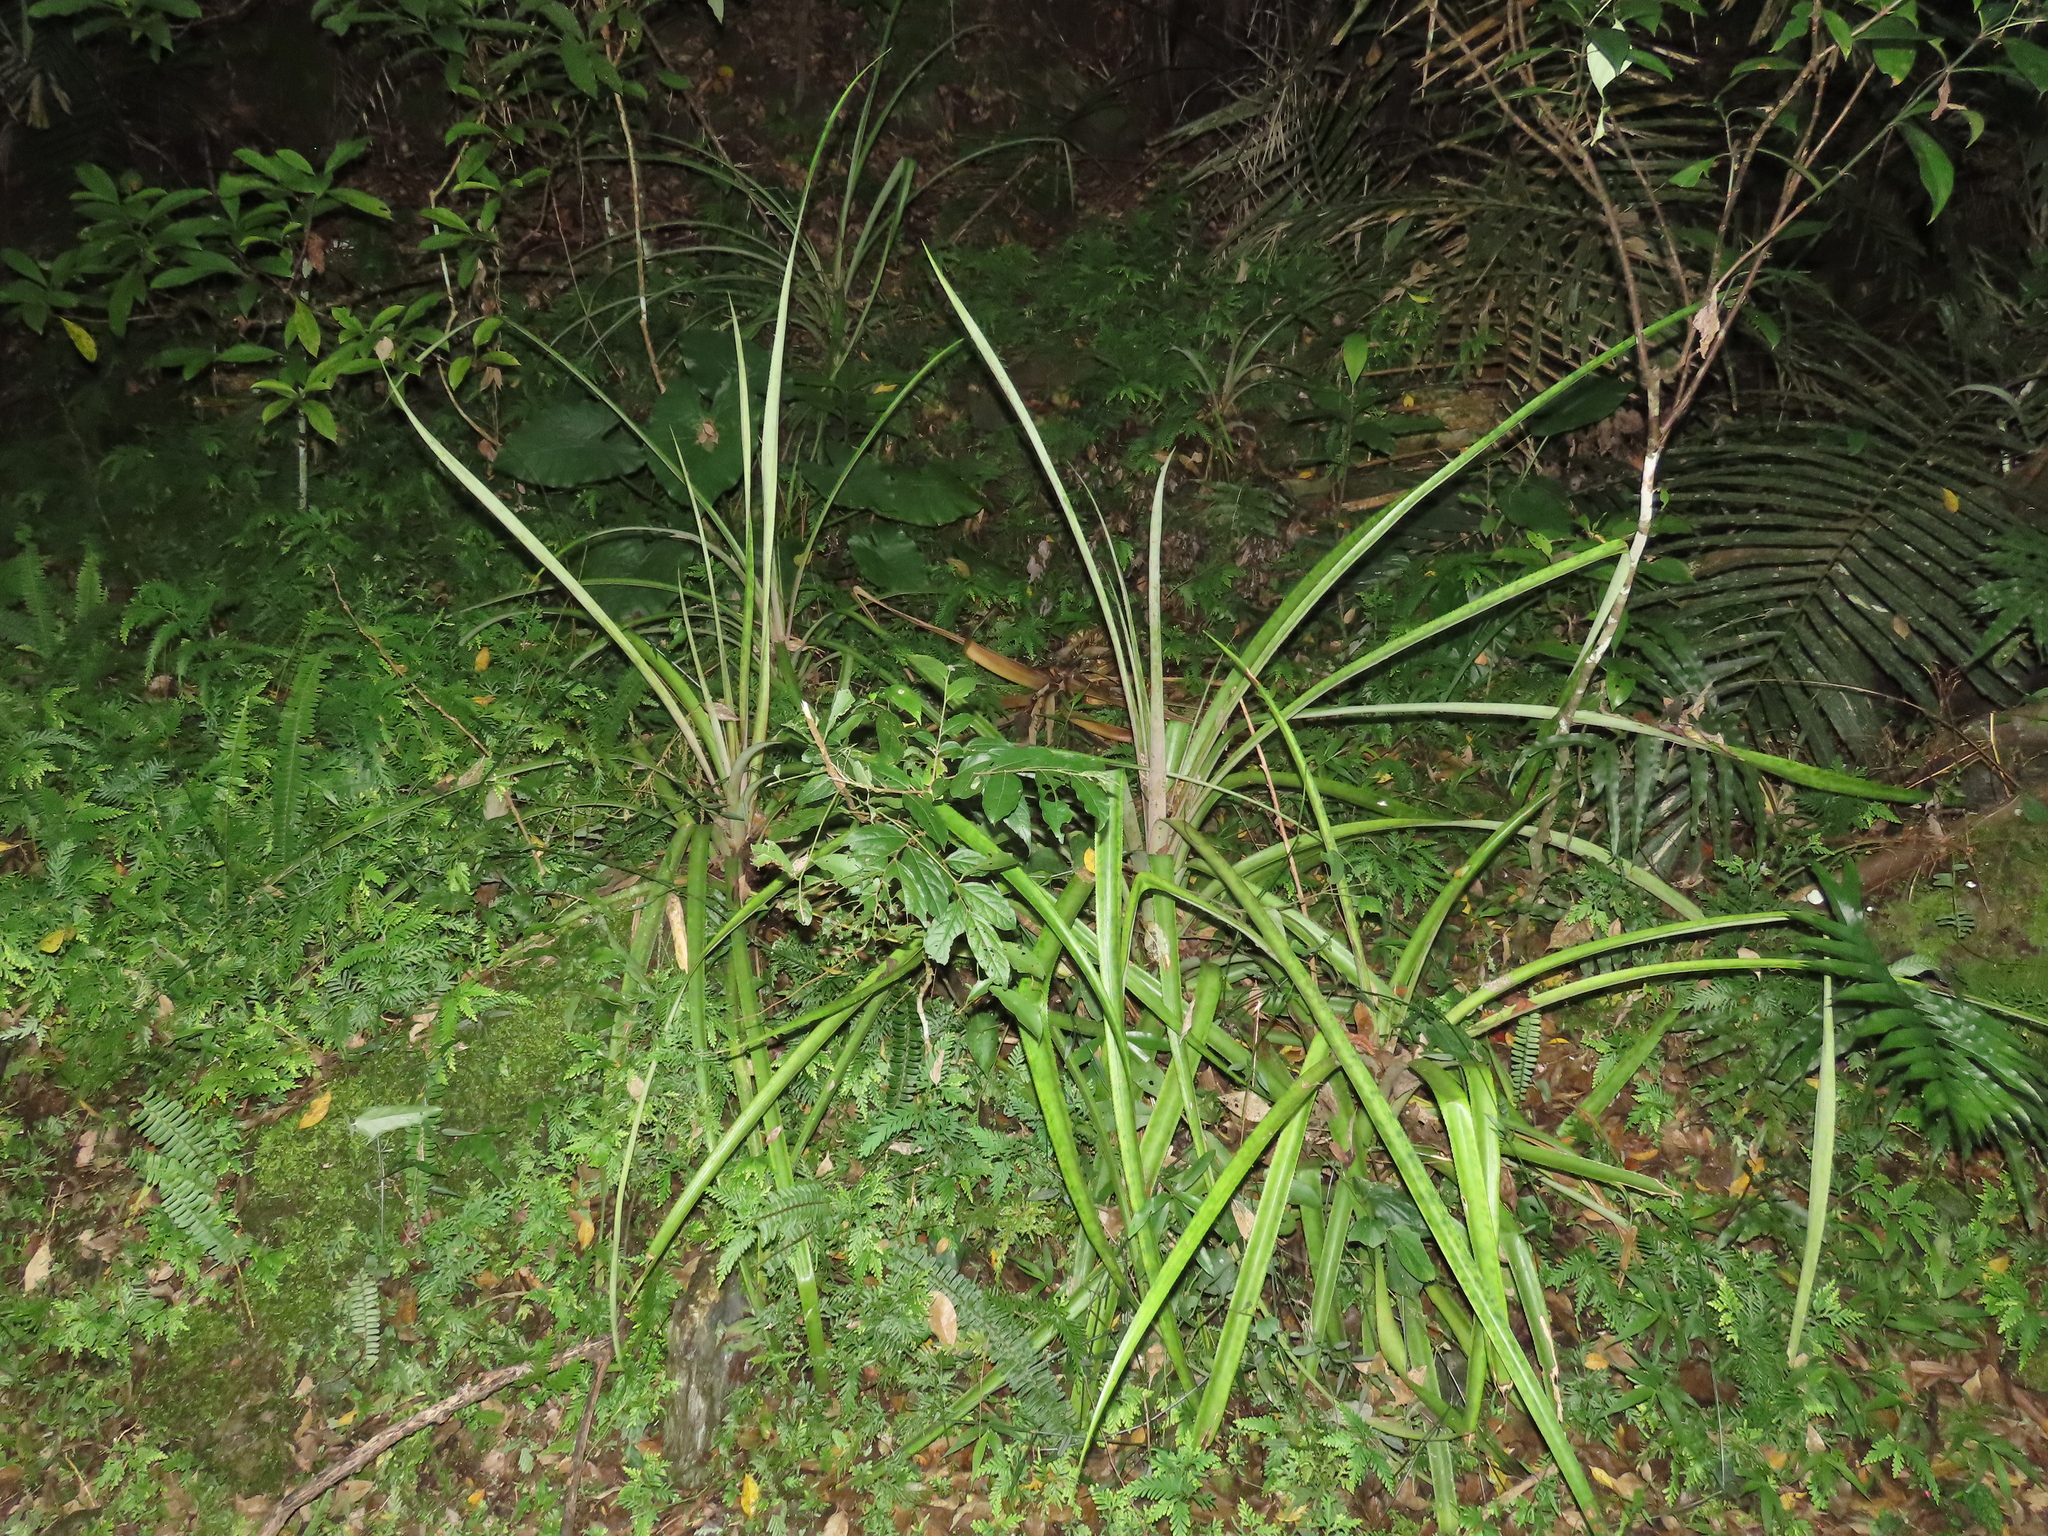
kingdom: Plantae
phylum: Tracheophyta
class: Liliopsida
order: Poales
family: Bromeliaceae
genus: Ananas
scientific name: Ananas comosus
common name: Pineapple
